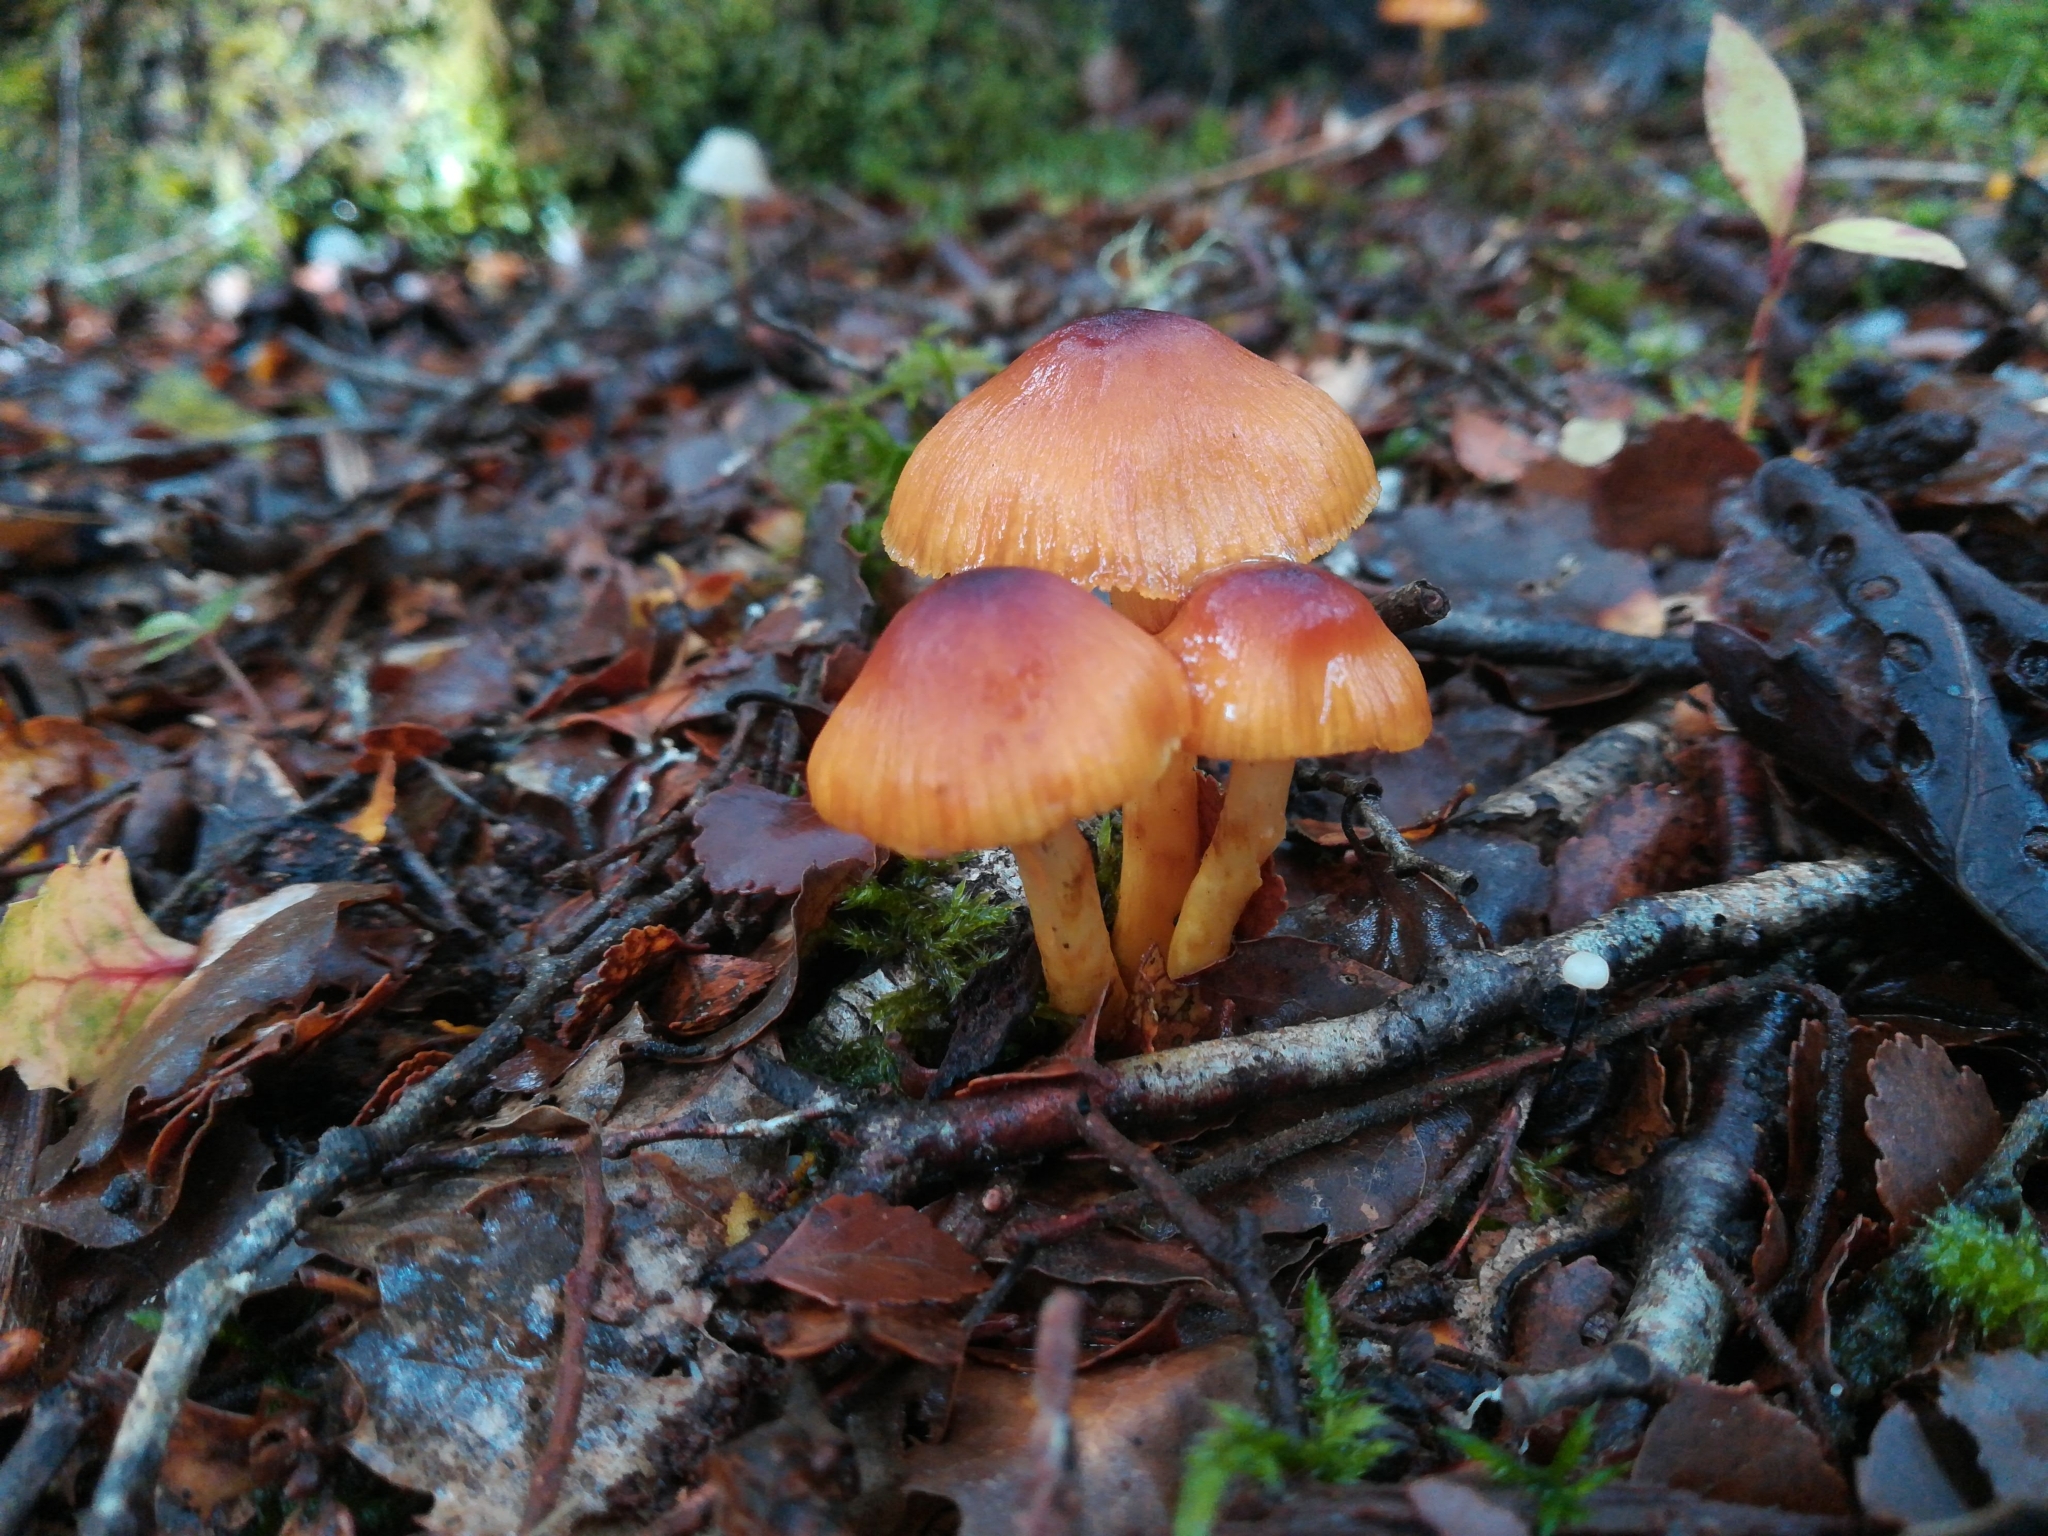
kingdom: Fungi
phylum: Basidiomycota
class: Agaricomycetes
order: Agaricales
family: Cortinariaceae
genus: Cortinarius
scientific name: Cortinarius castaneodiscus
